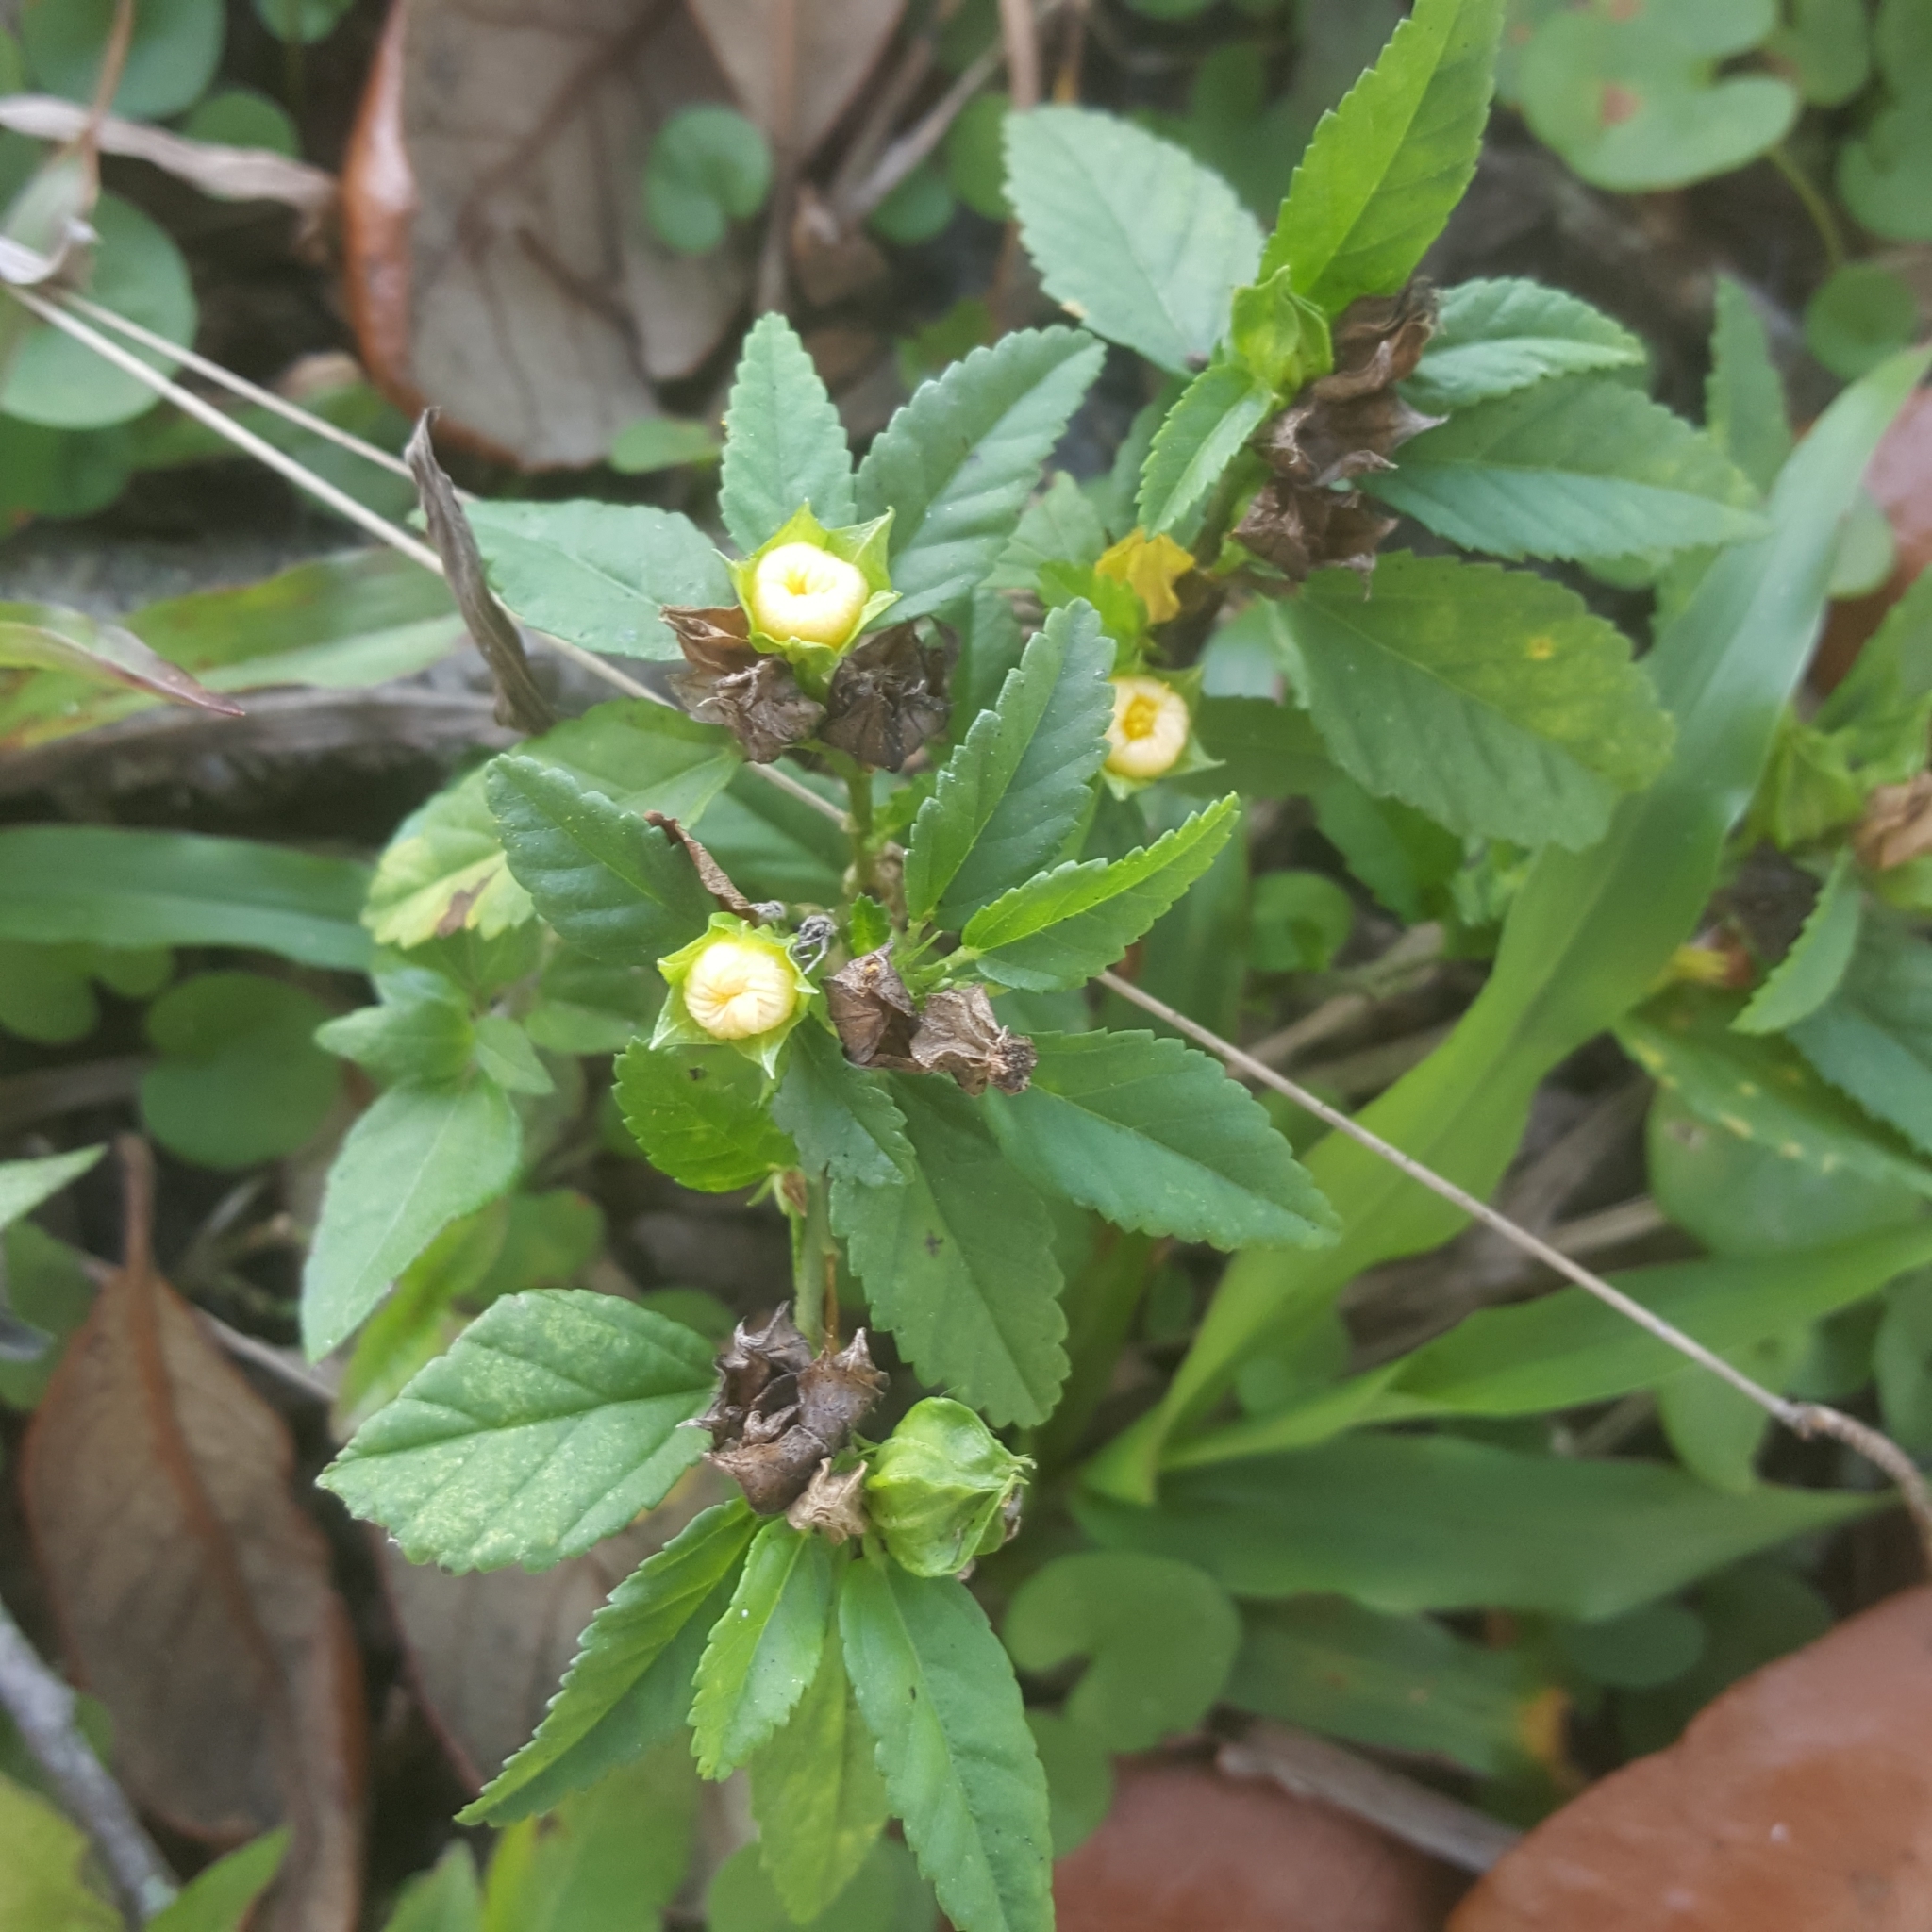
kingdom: Plantae
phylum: Tracheophyta
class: Magnoliopsida
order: Malvales
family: Malvaceae
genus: Sida
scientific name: Sida ulmifolia
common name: Broom weed
